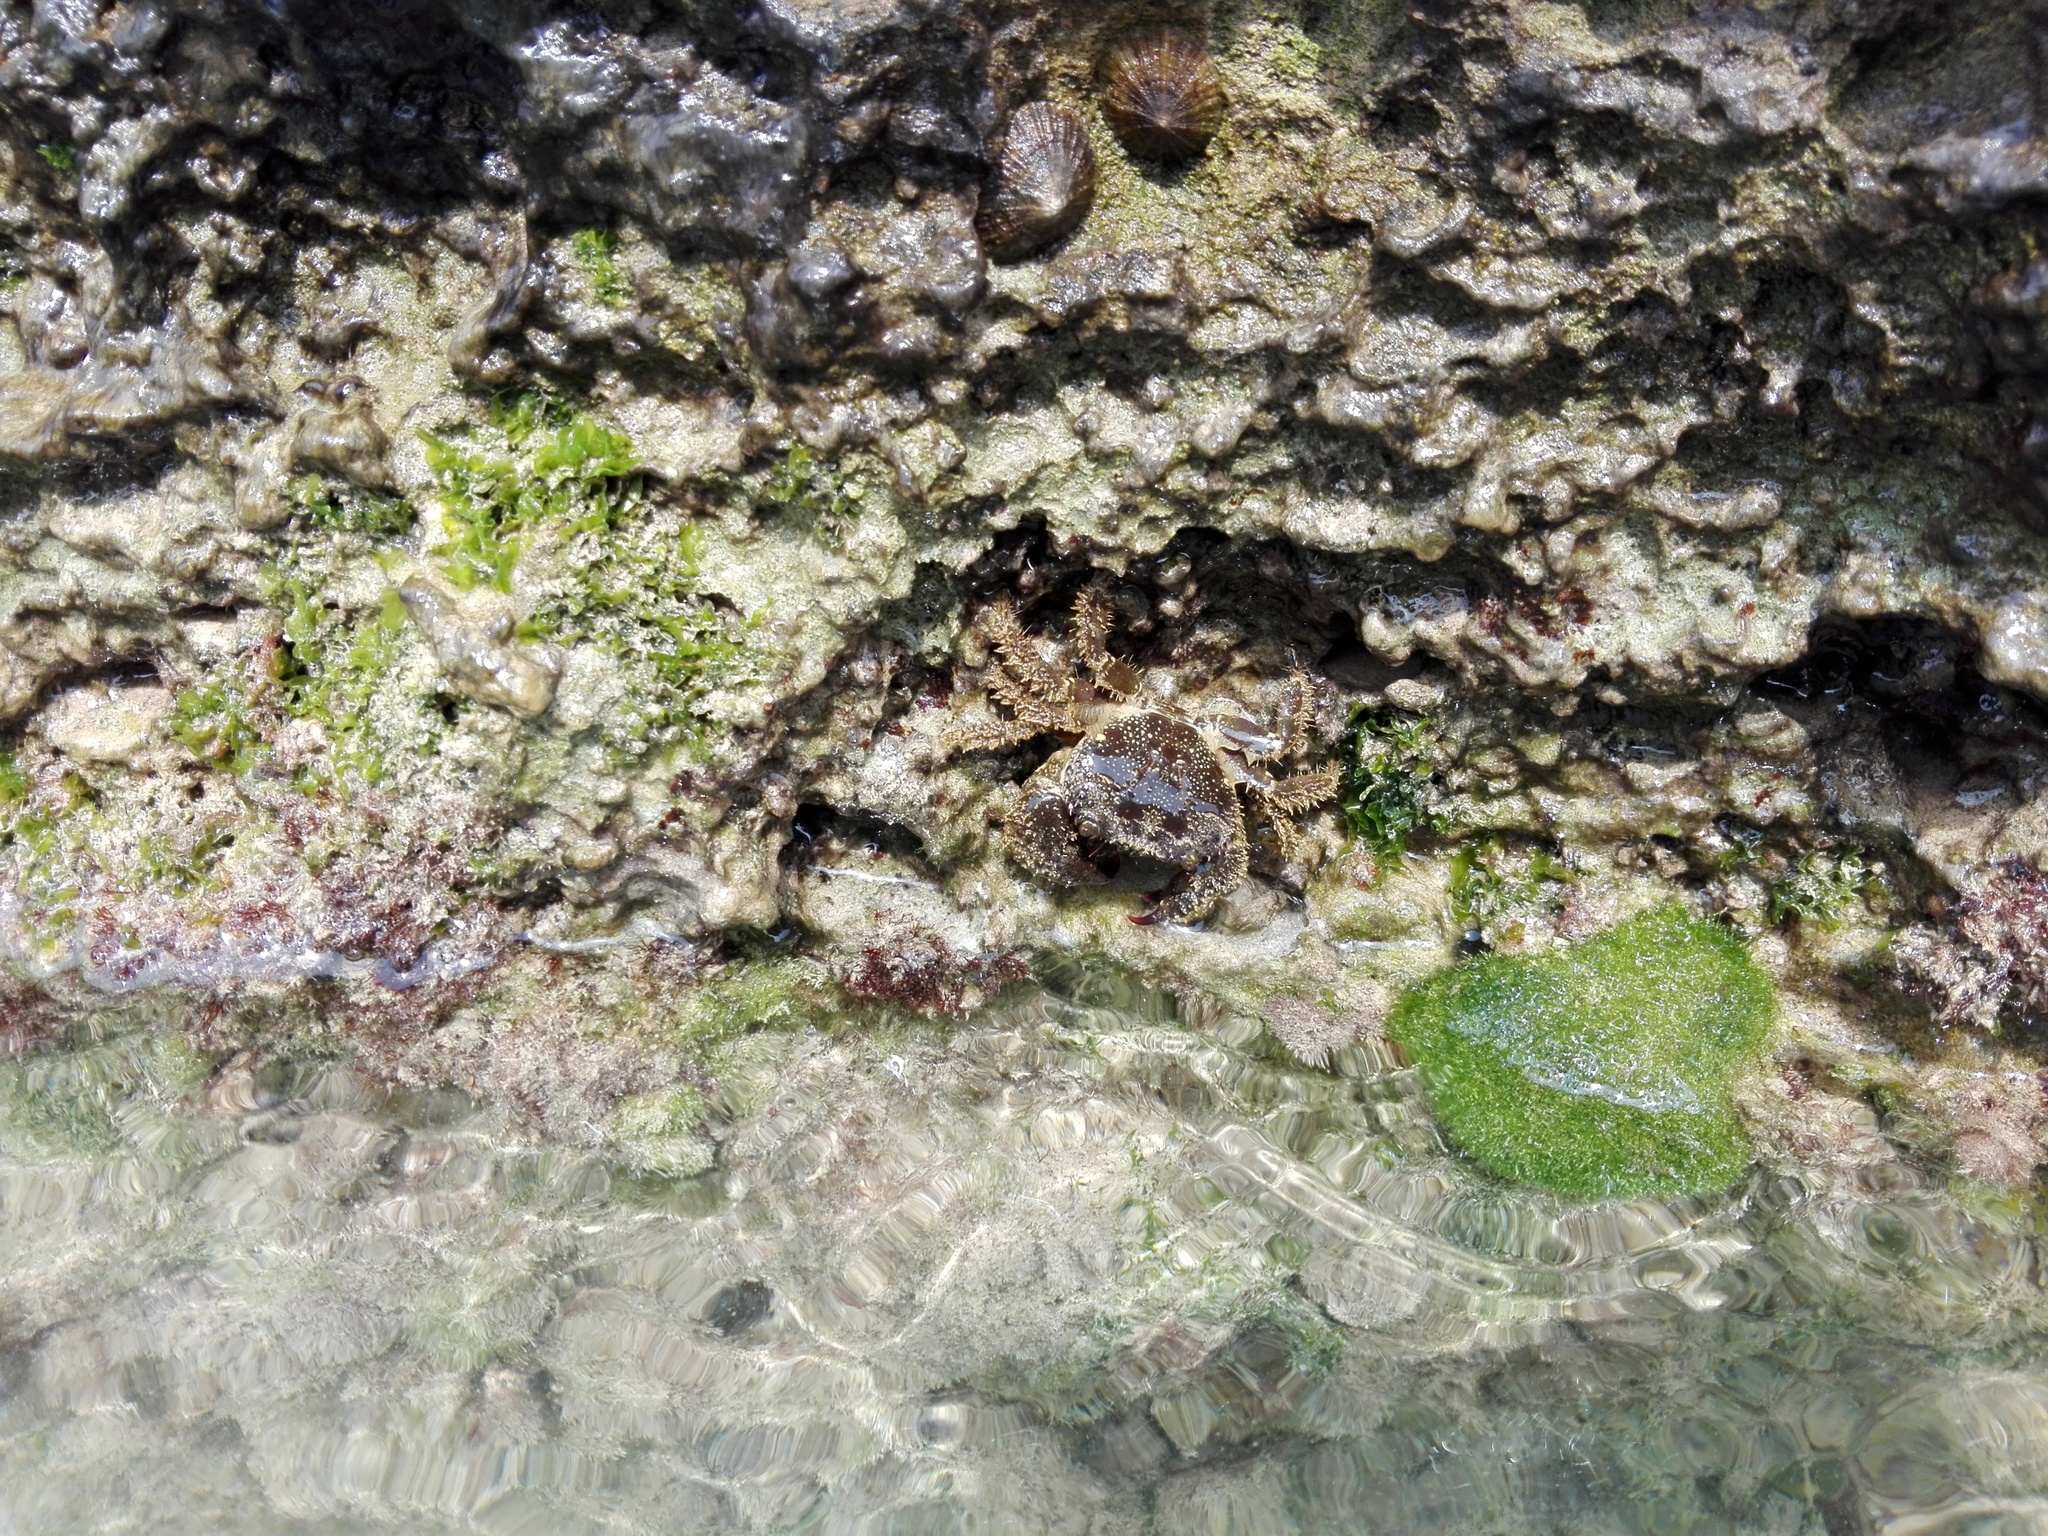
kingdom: Animalia
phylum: Arthropoda
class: Malacostraca
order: Decapoda
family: Eriphiidae
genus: Eriphia
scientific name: Eriphia verrucosa
